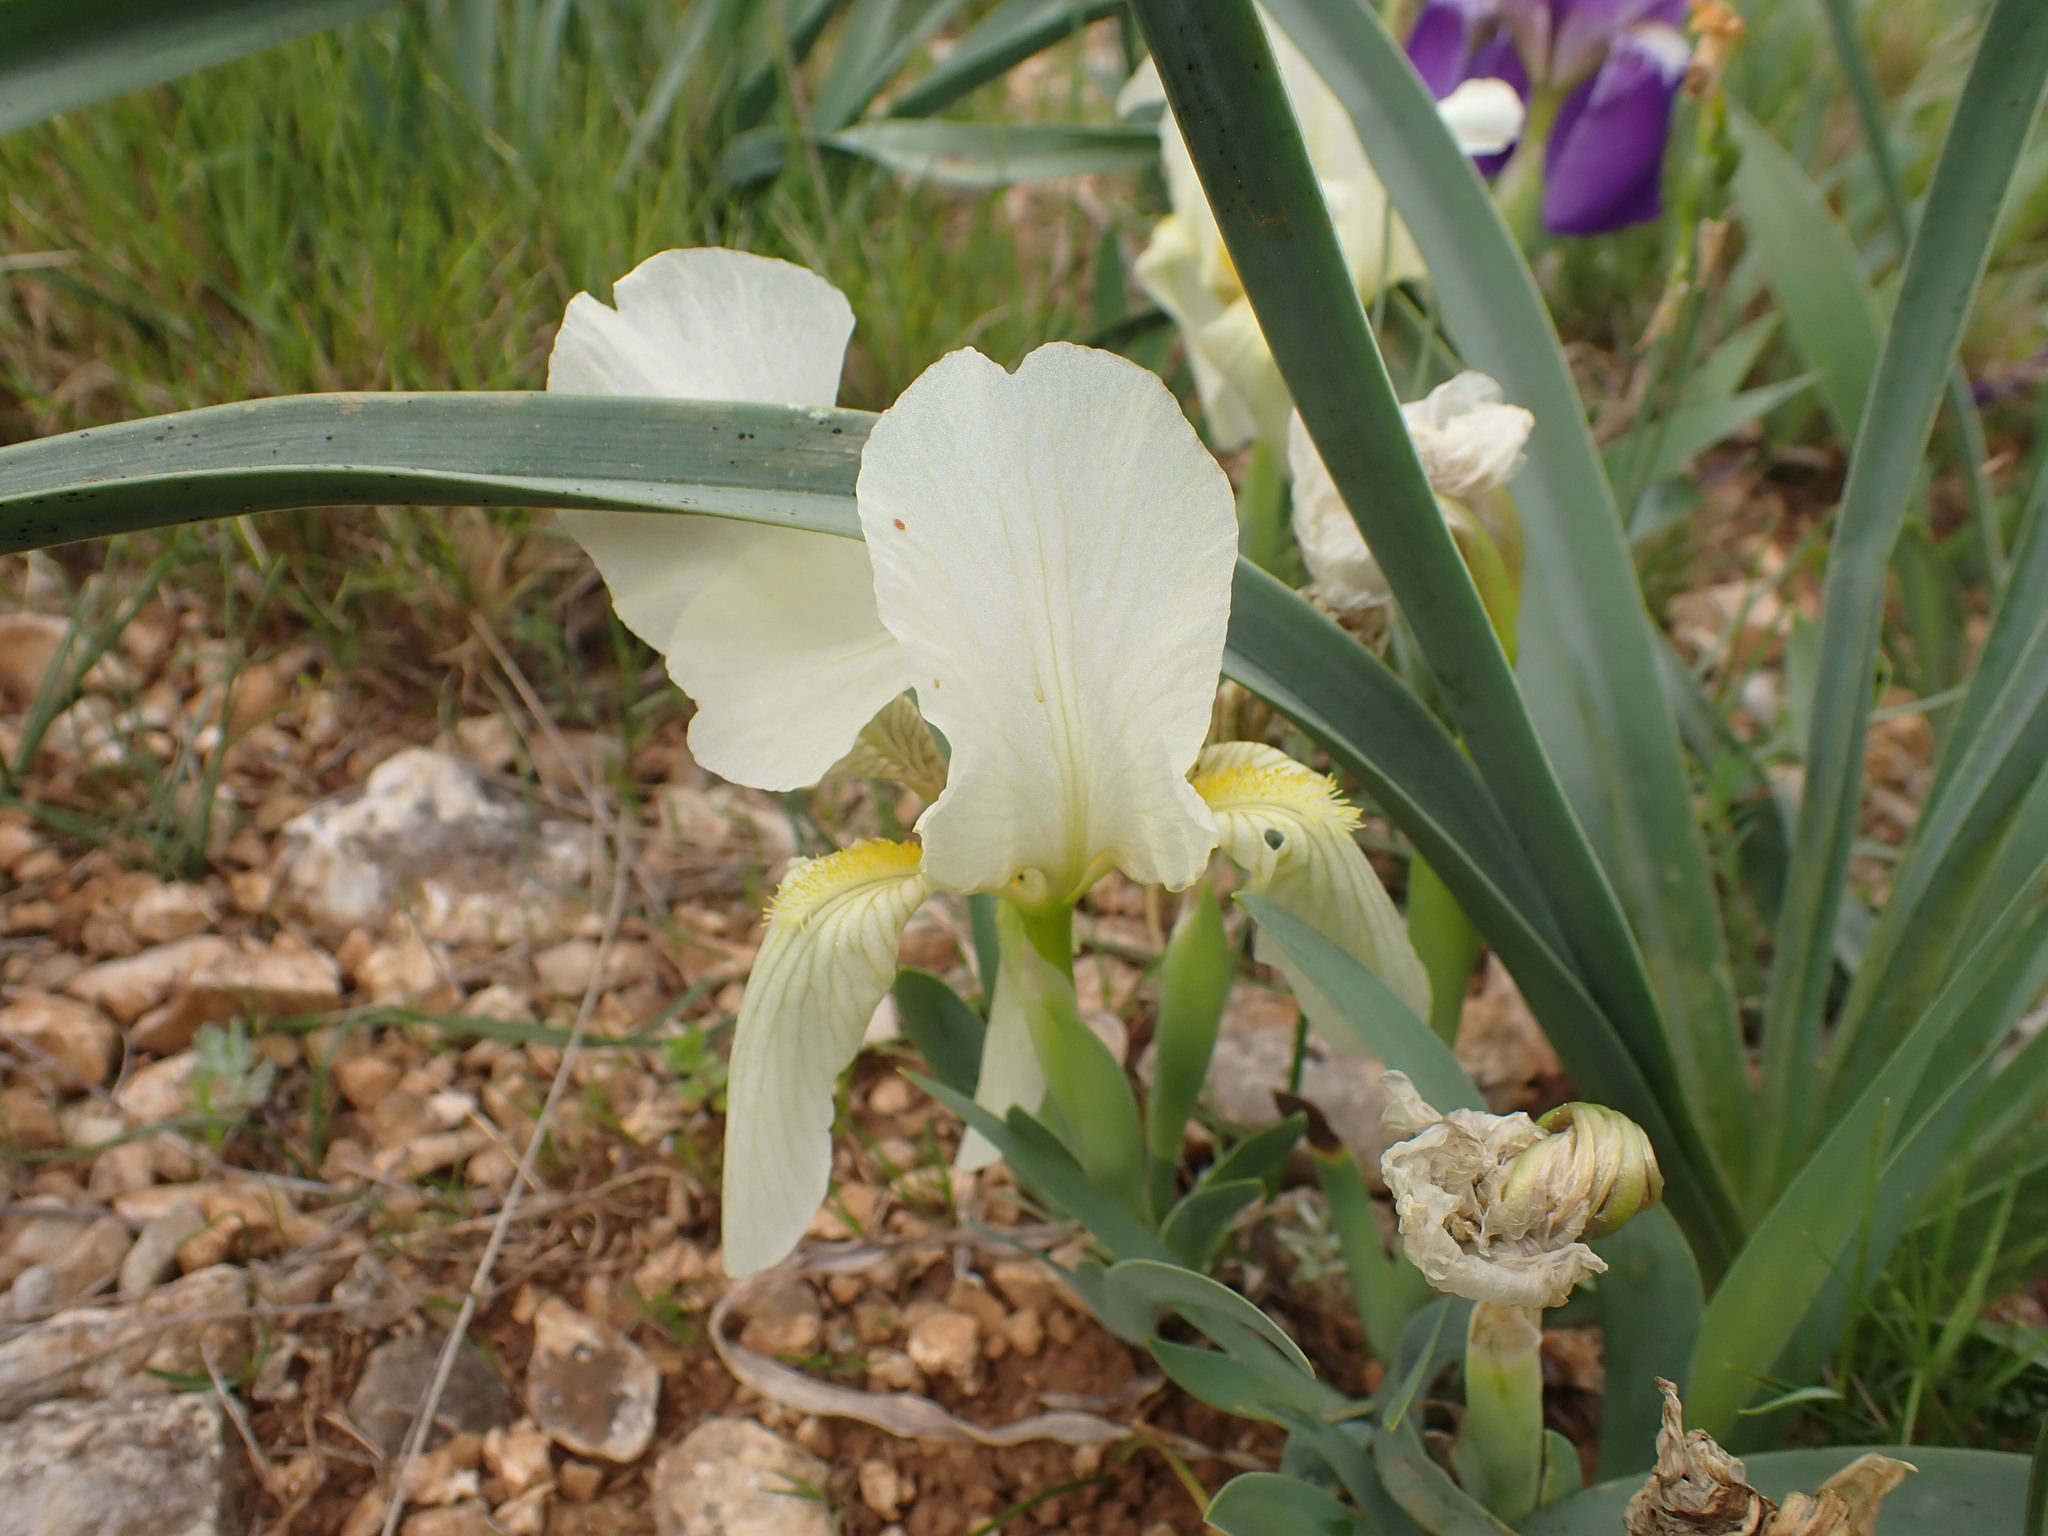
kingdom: Plantae
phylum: Tracheophyta
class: Liliopsida
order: Asparagales
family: Iridaceae
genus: Iris
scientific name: Iris lutescens
